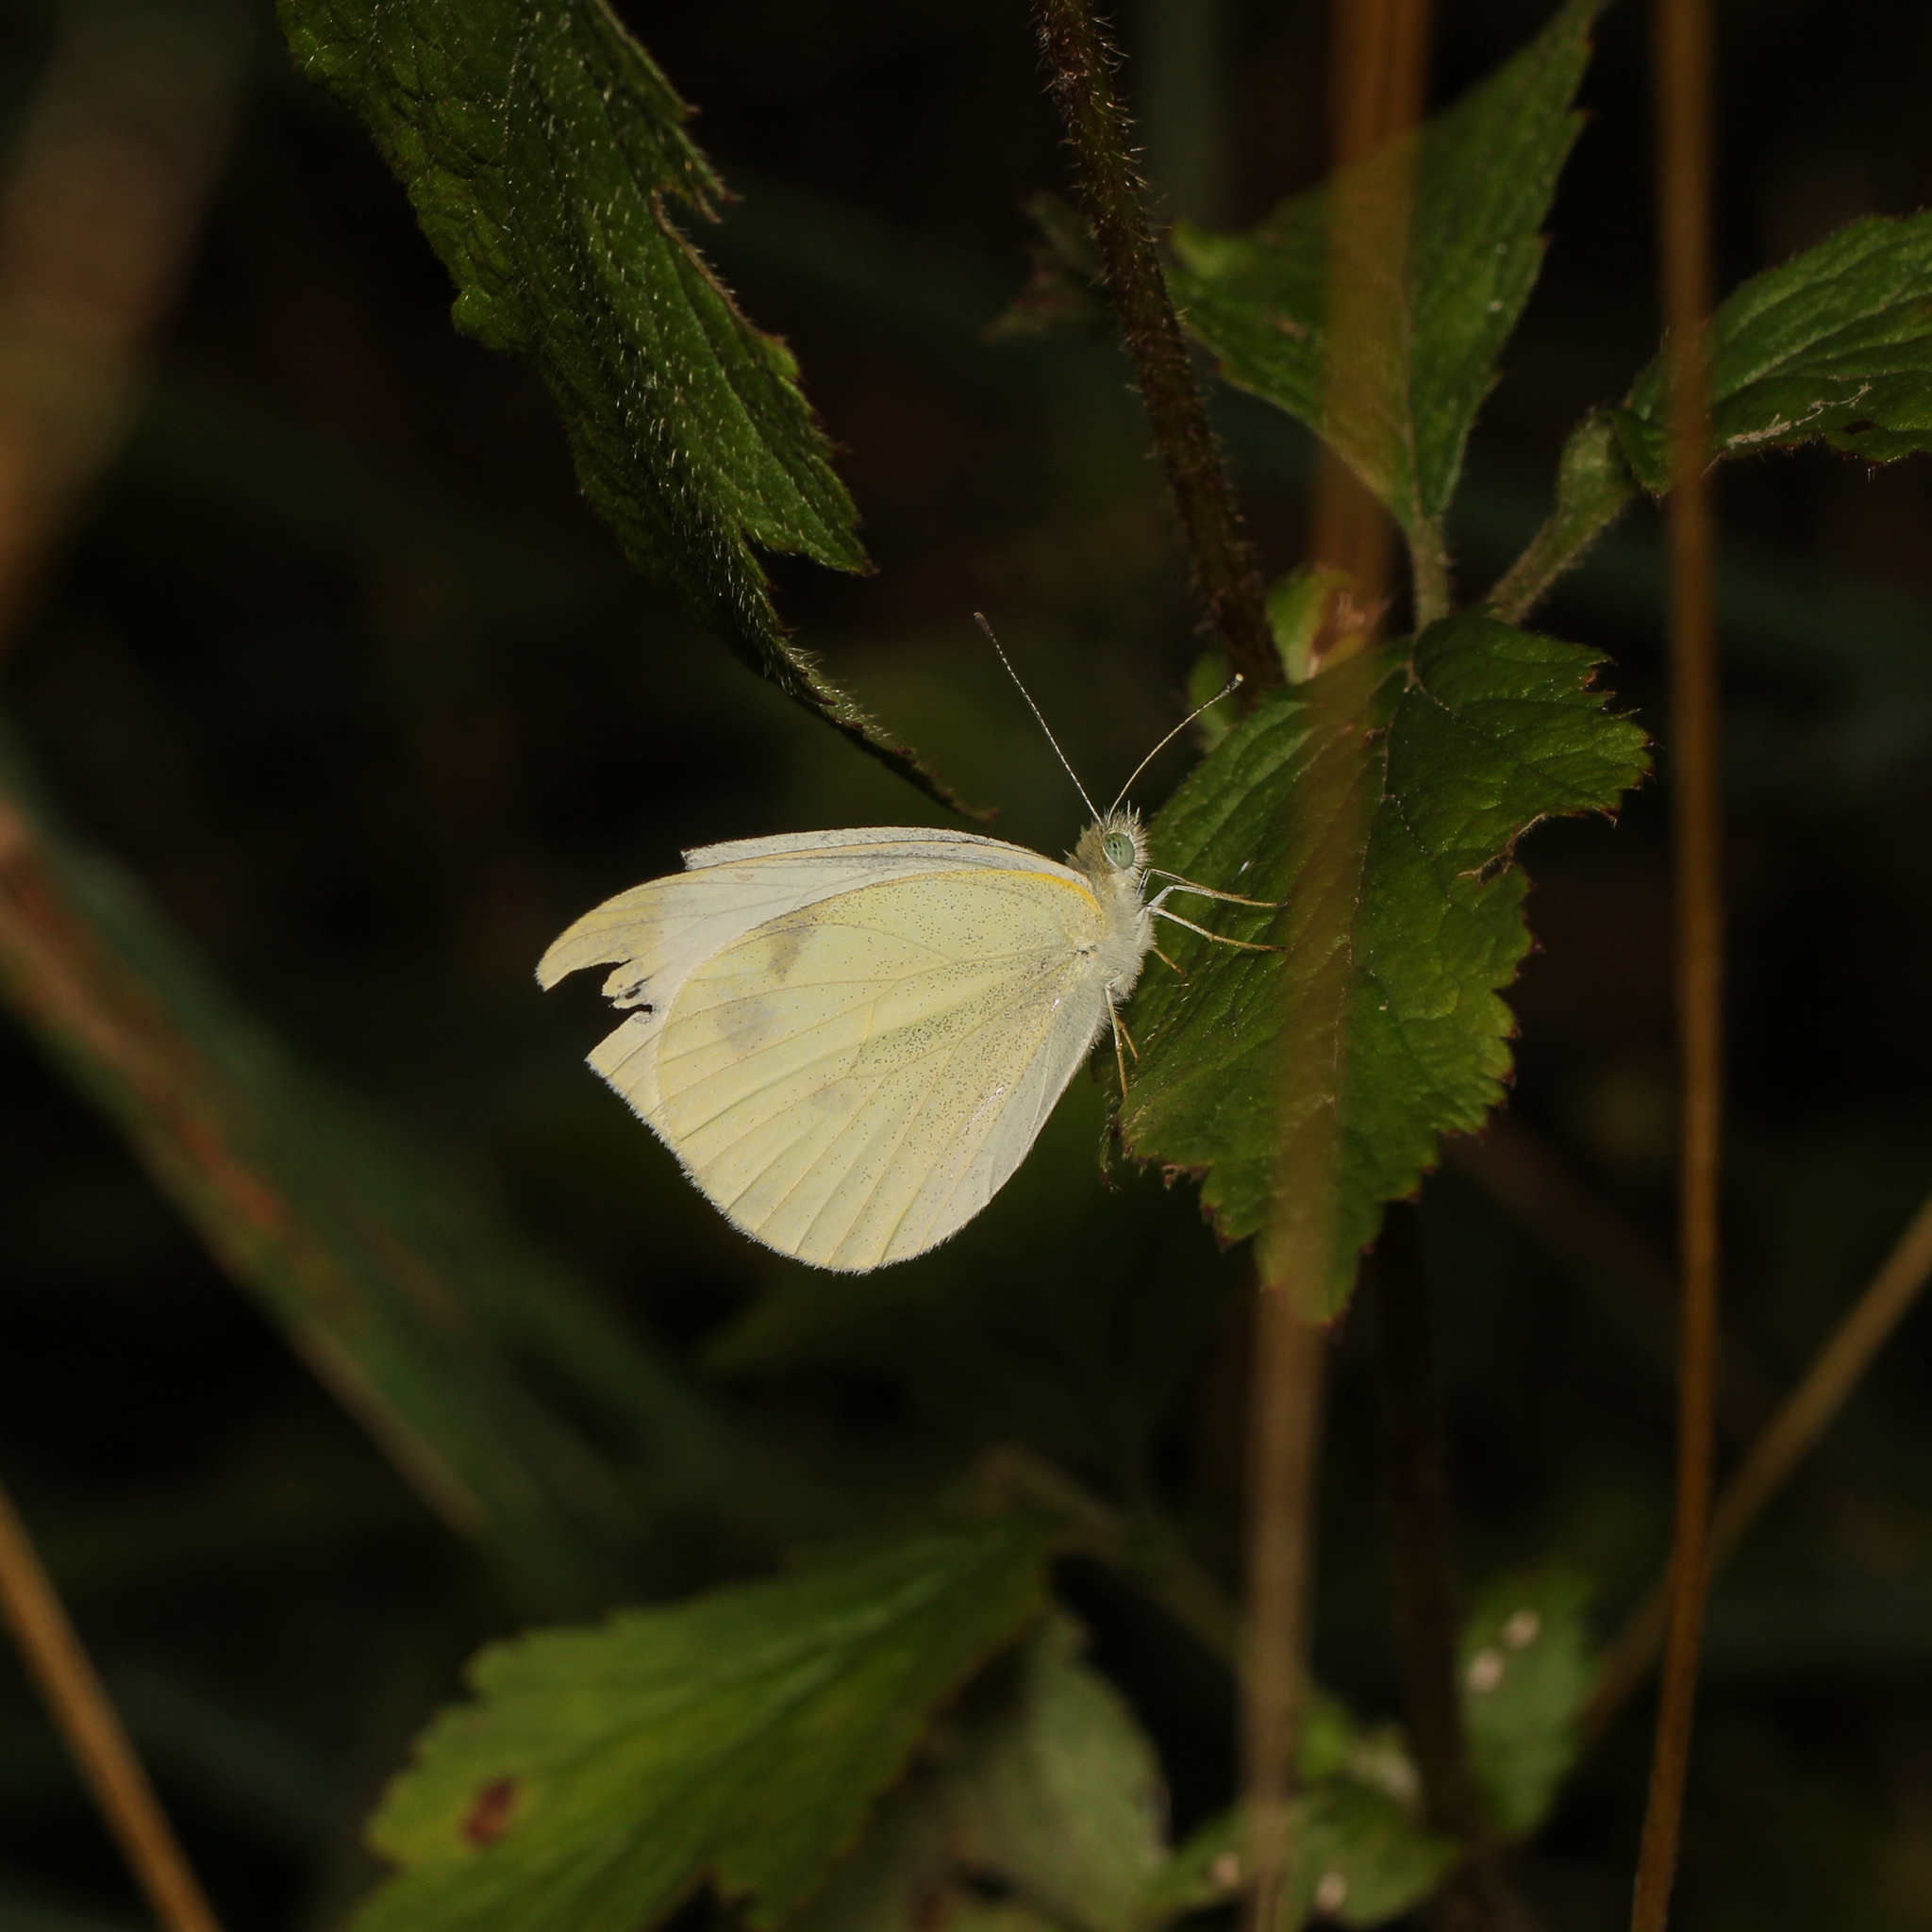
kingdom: Animalia
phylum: Arthropoda
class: Insecta
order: Lepidoptera
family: Pieridae
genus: Pieris
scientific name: Pieris rapae
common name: Small white
